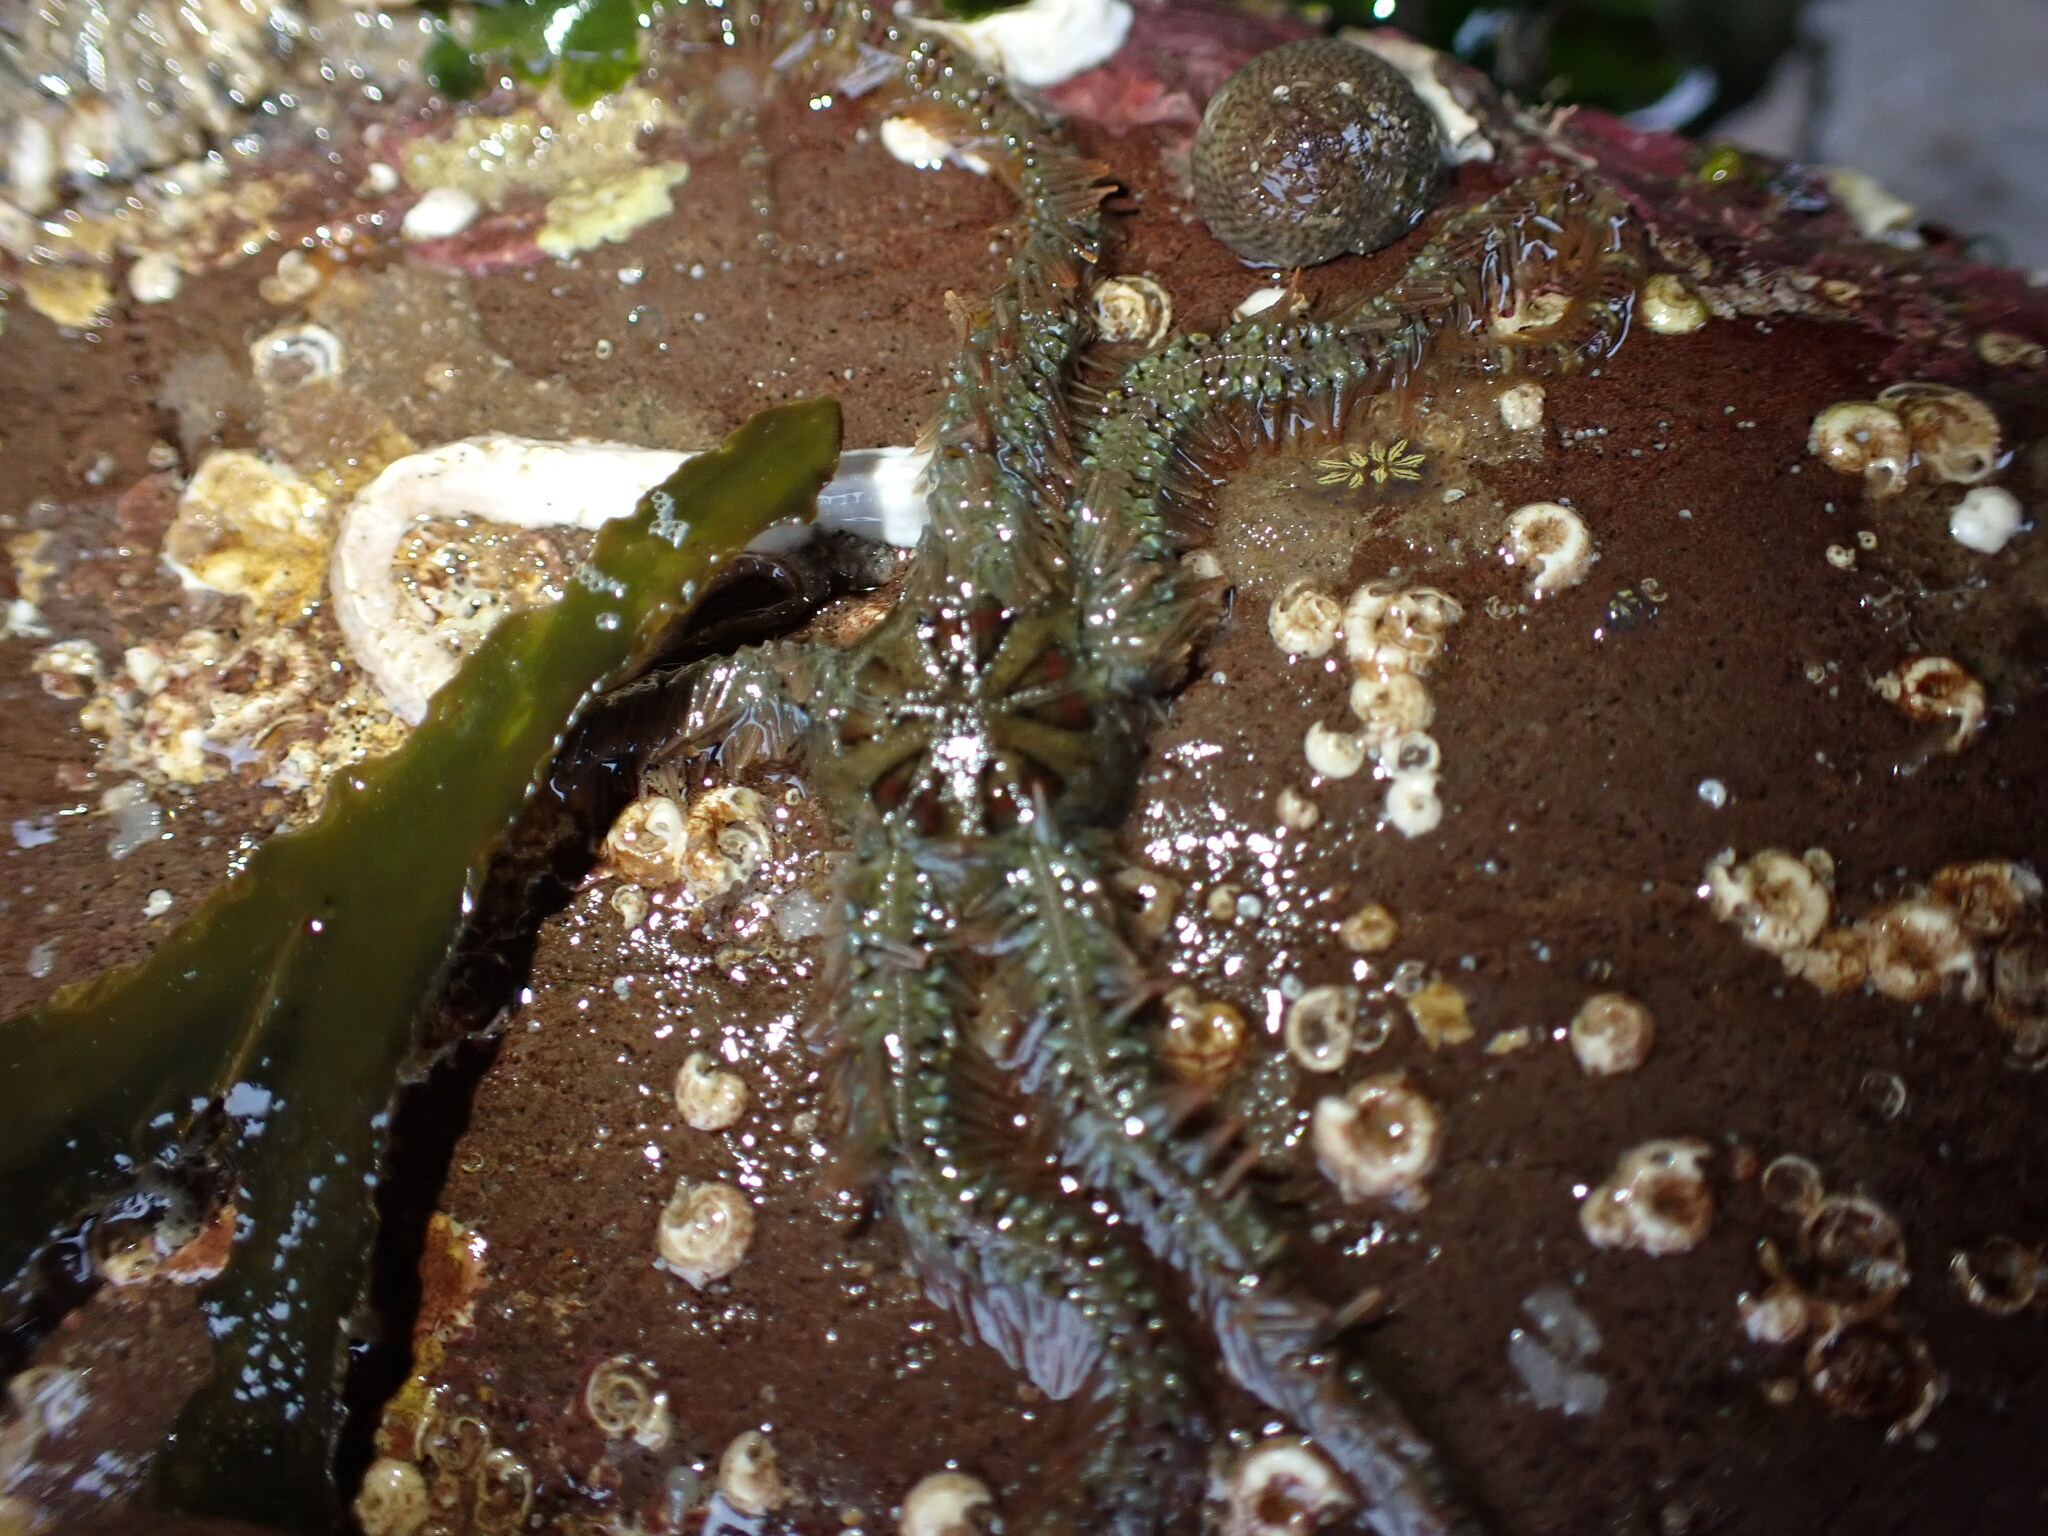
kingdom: Animalia
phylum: Echinodermata
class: Ophiuroidea
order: Amphilepidida
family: Ophiotrichidae
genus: Ophiothrix
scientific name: Ophiothrix fragilis
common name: Common brittlestar
